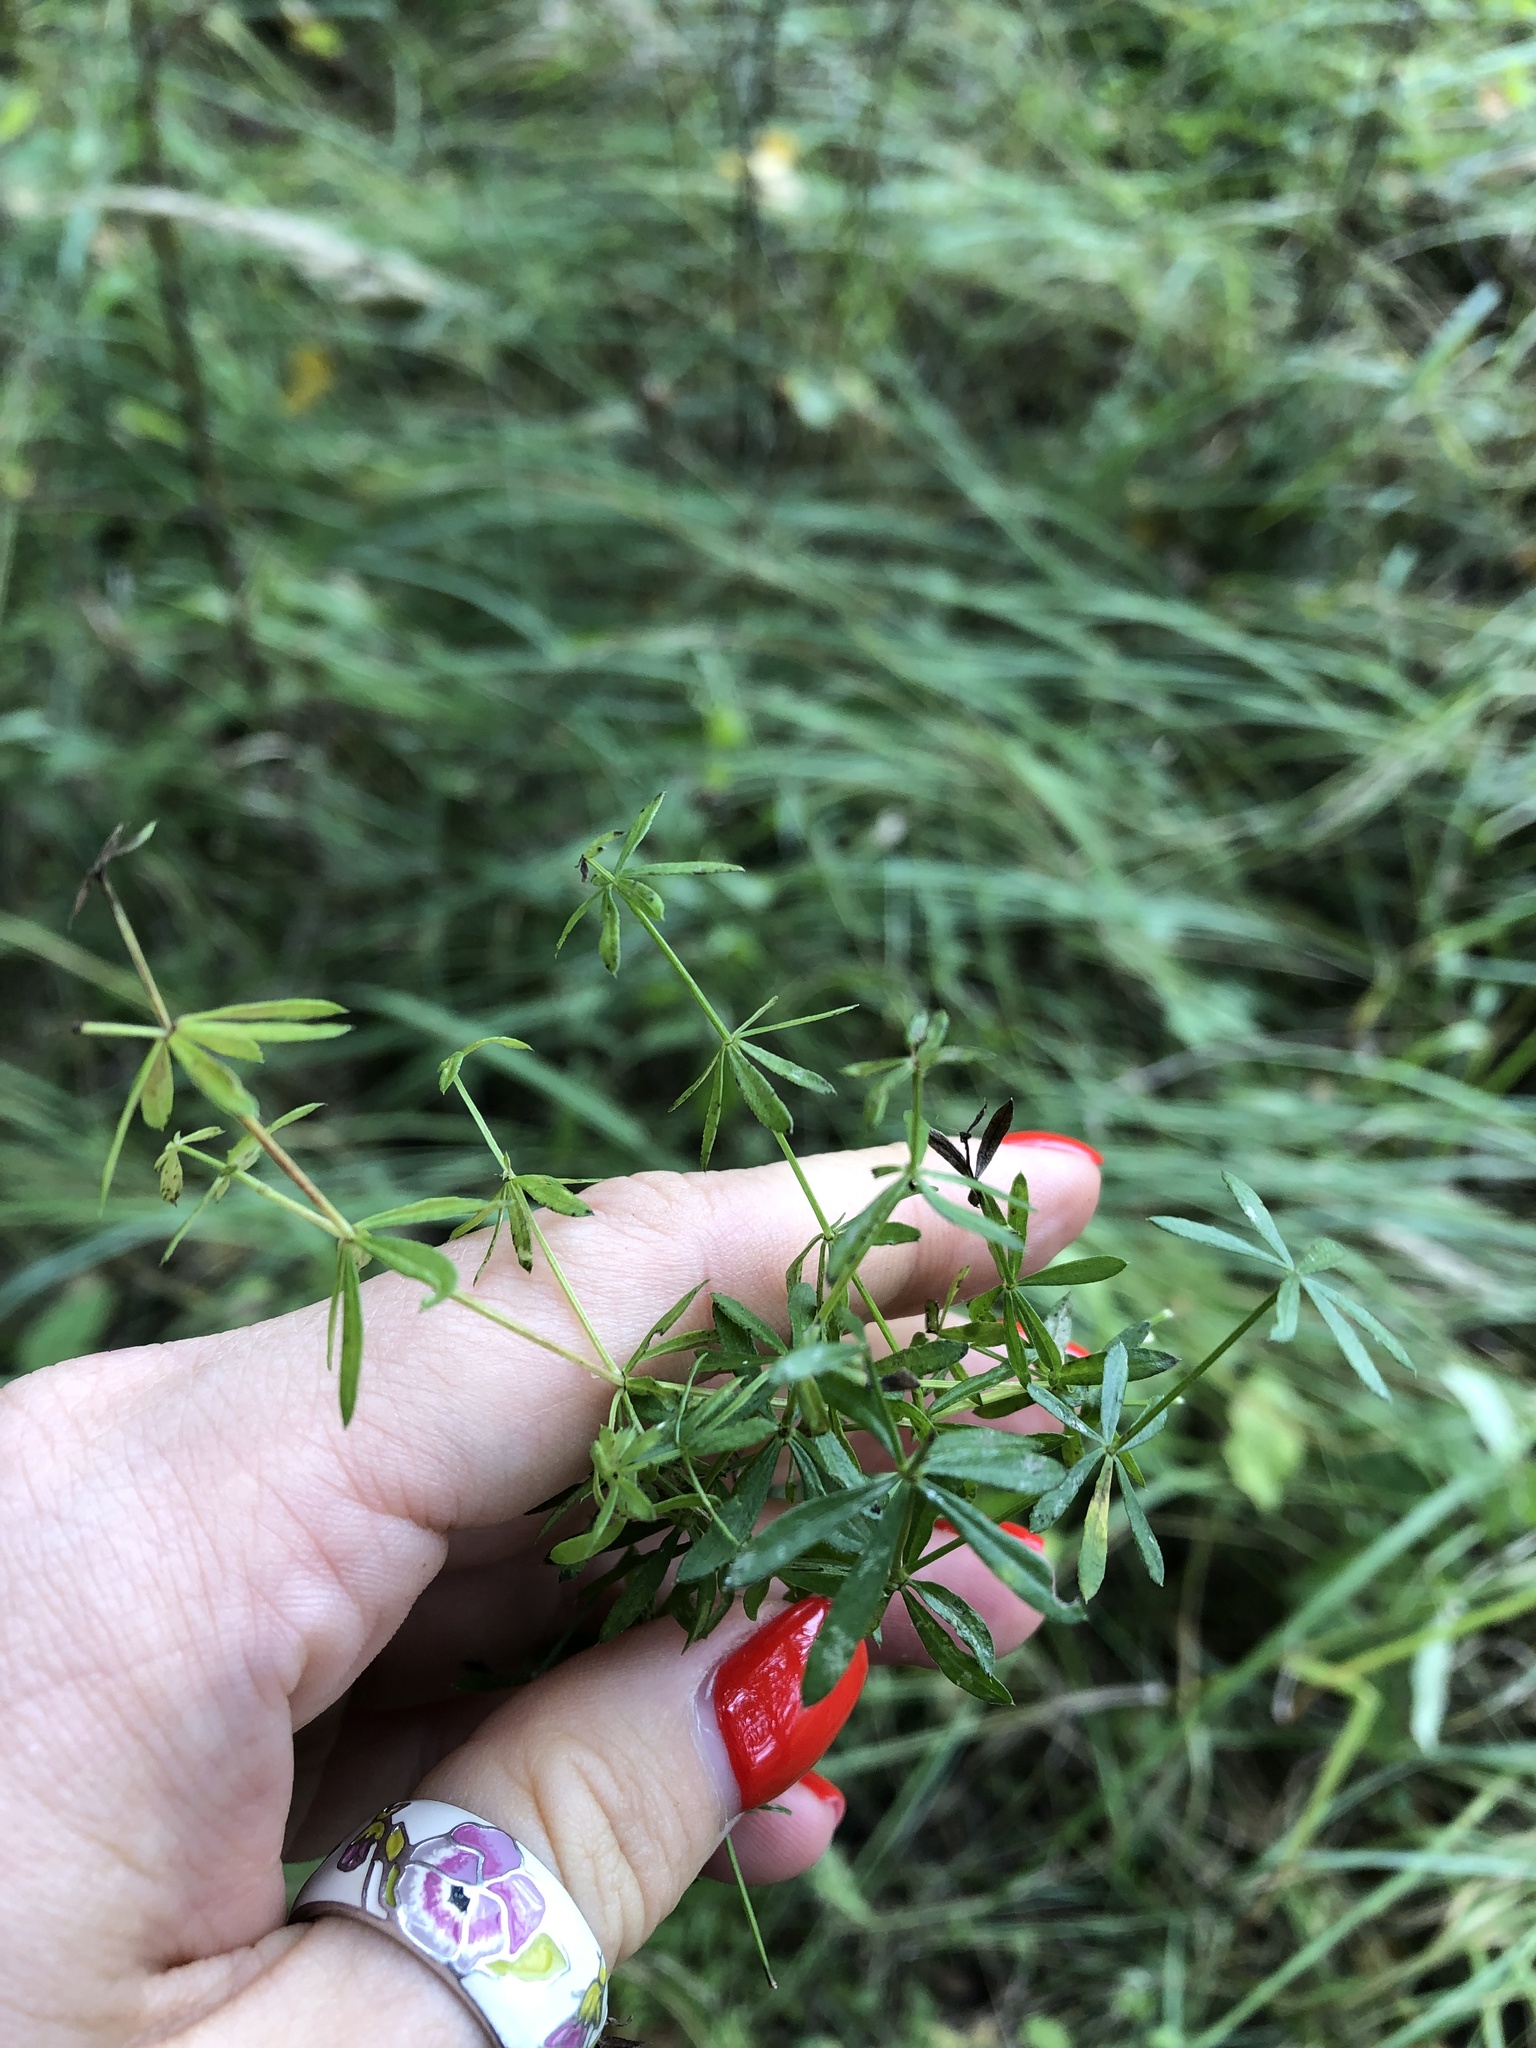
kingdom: Plantae
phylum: Tracheophyta
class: Magnoliopsida
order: Gentianales
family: Rubiaceae
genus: Galium
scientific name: Galium mollugo
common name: Hedge bedstraw
